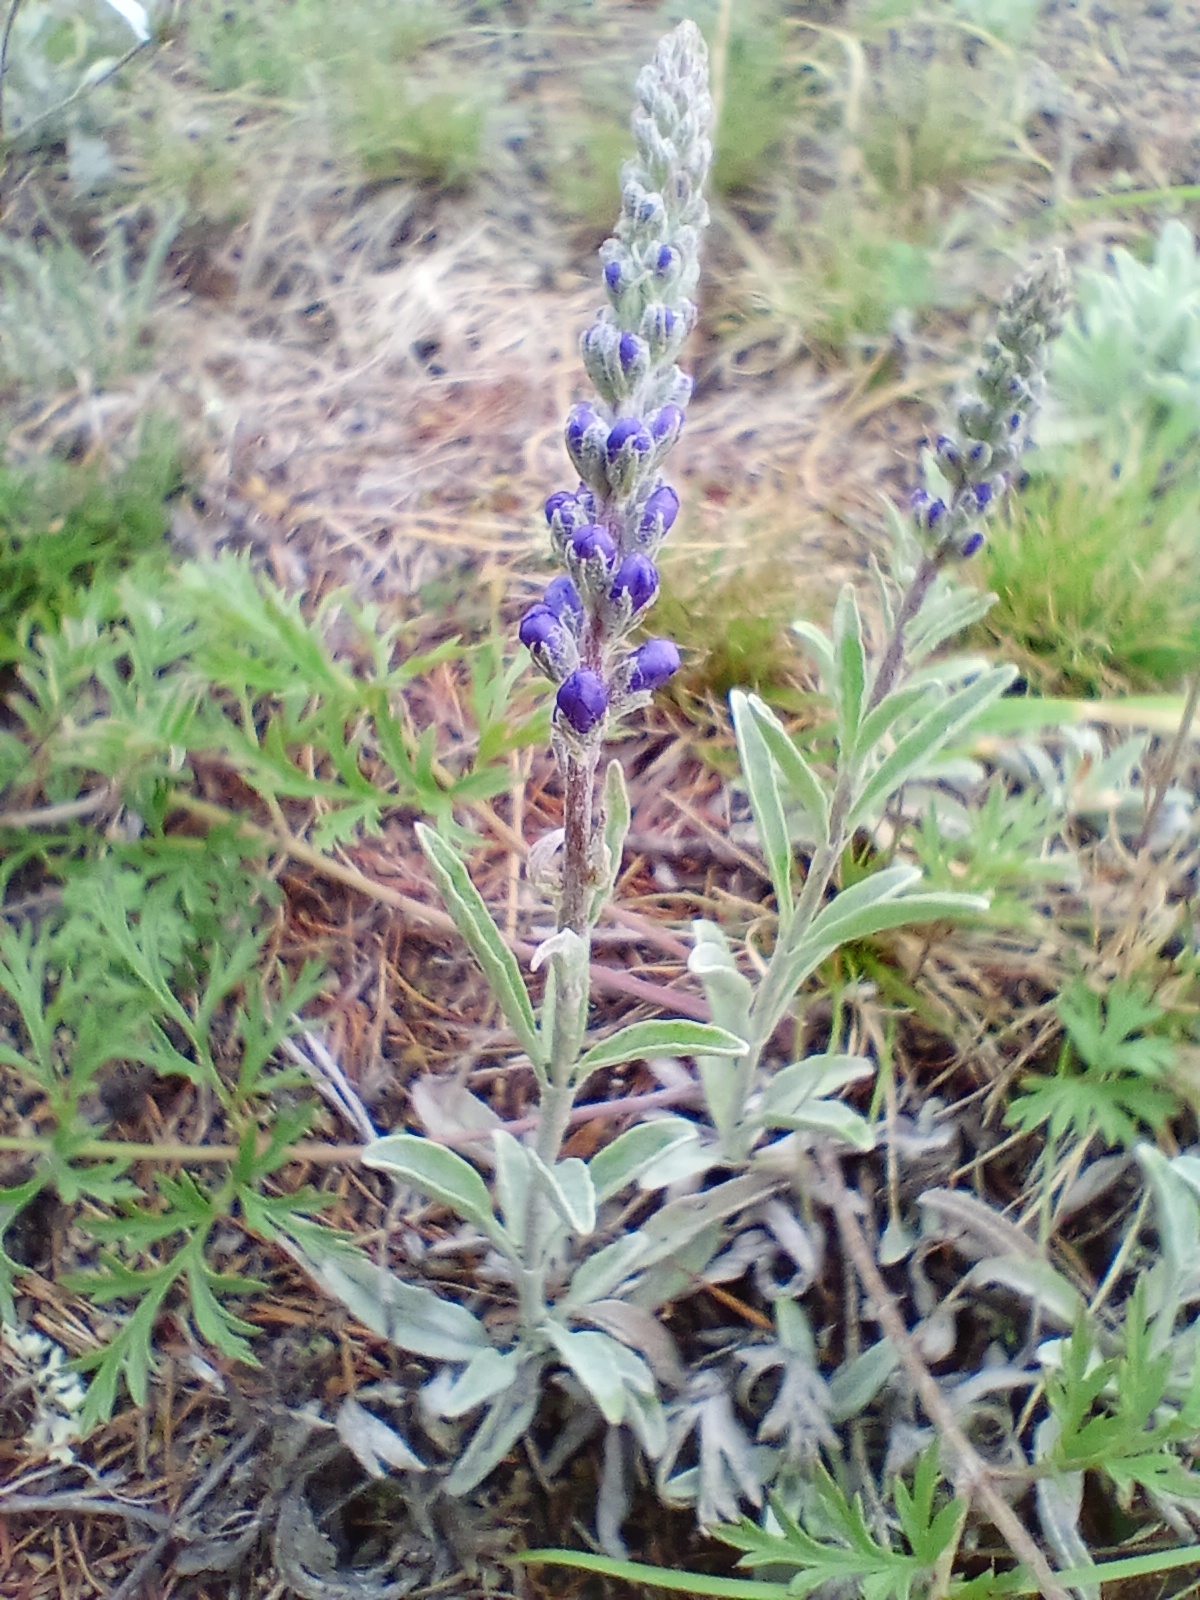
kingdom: Plantae
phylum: Tracheophyta
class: Magnoliopsida
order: Lamiales
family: Plantaginaceae
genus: Veronica
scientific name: Veronica incana
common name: Silver speedwell
